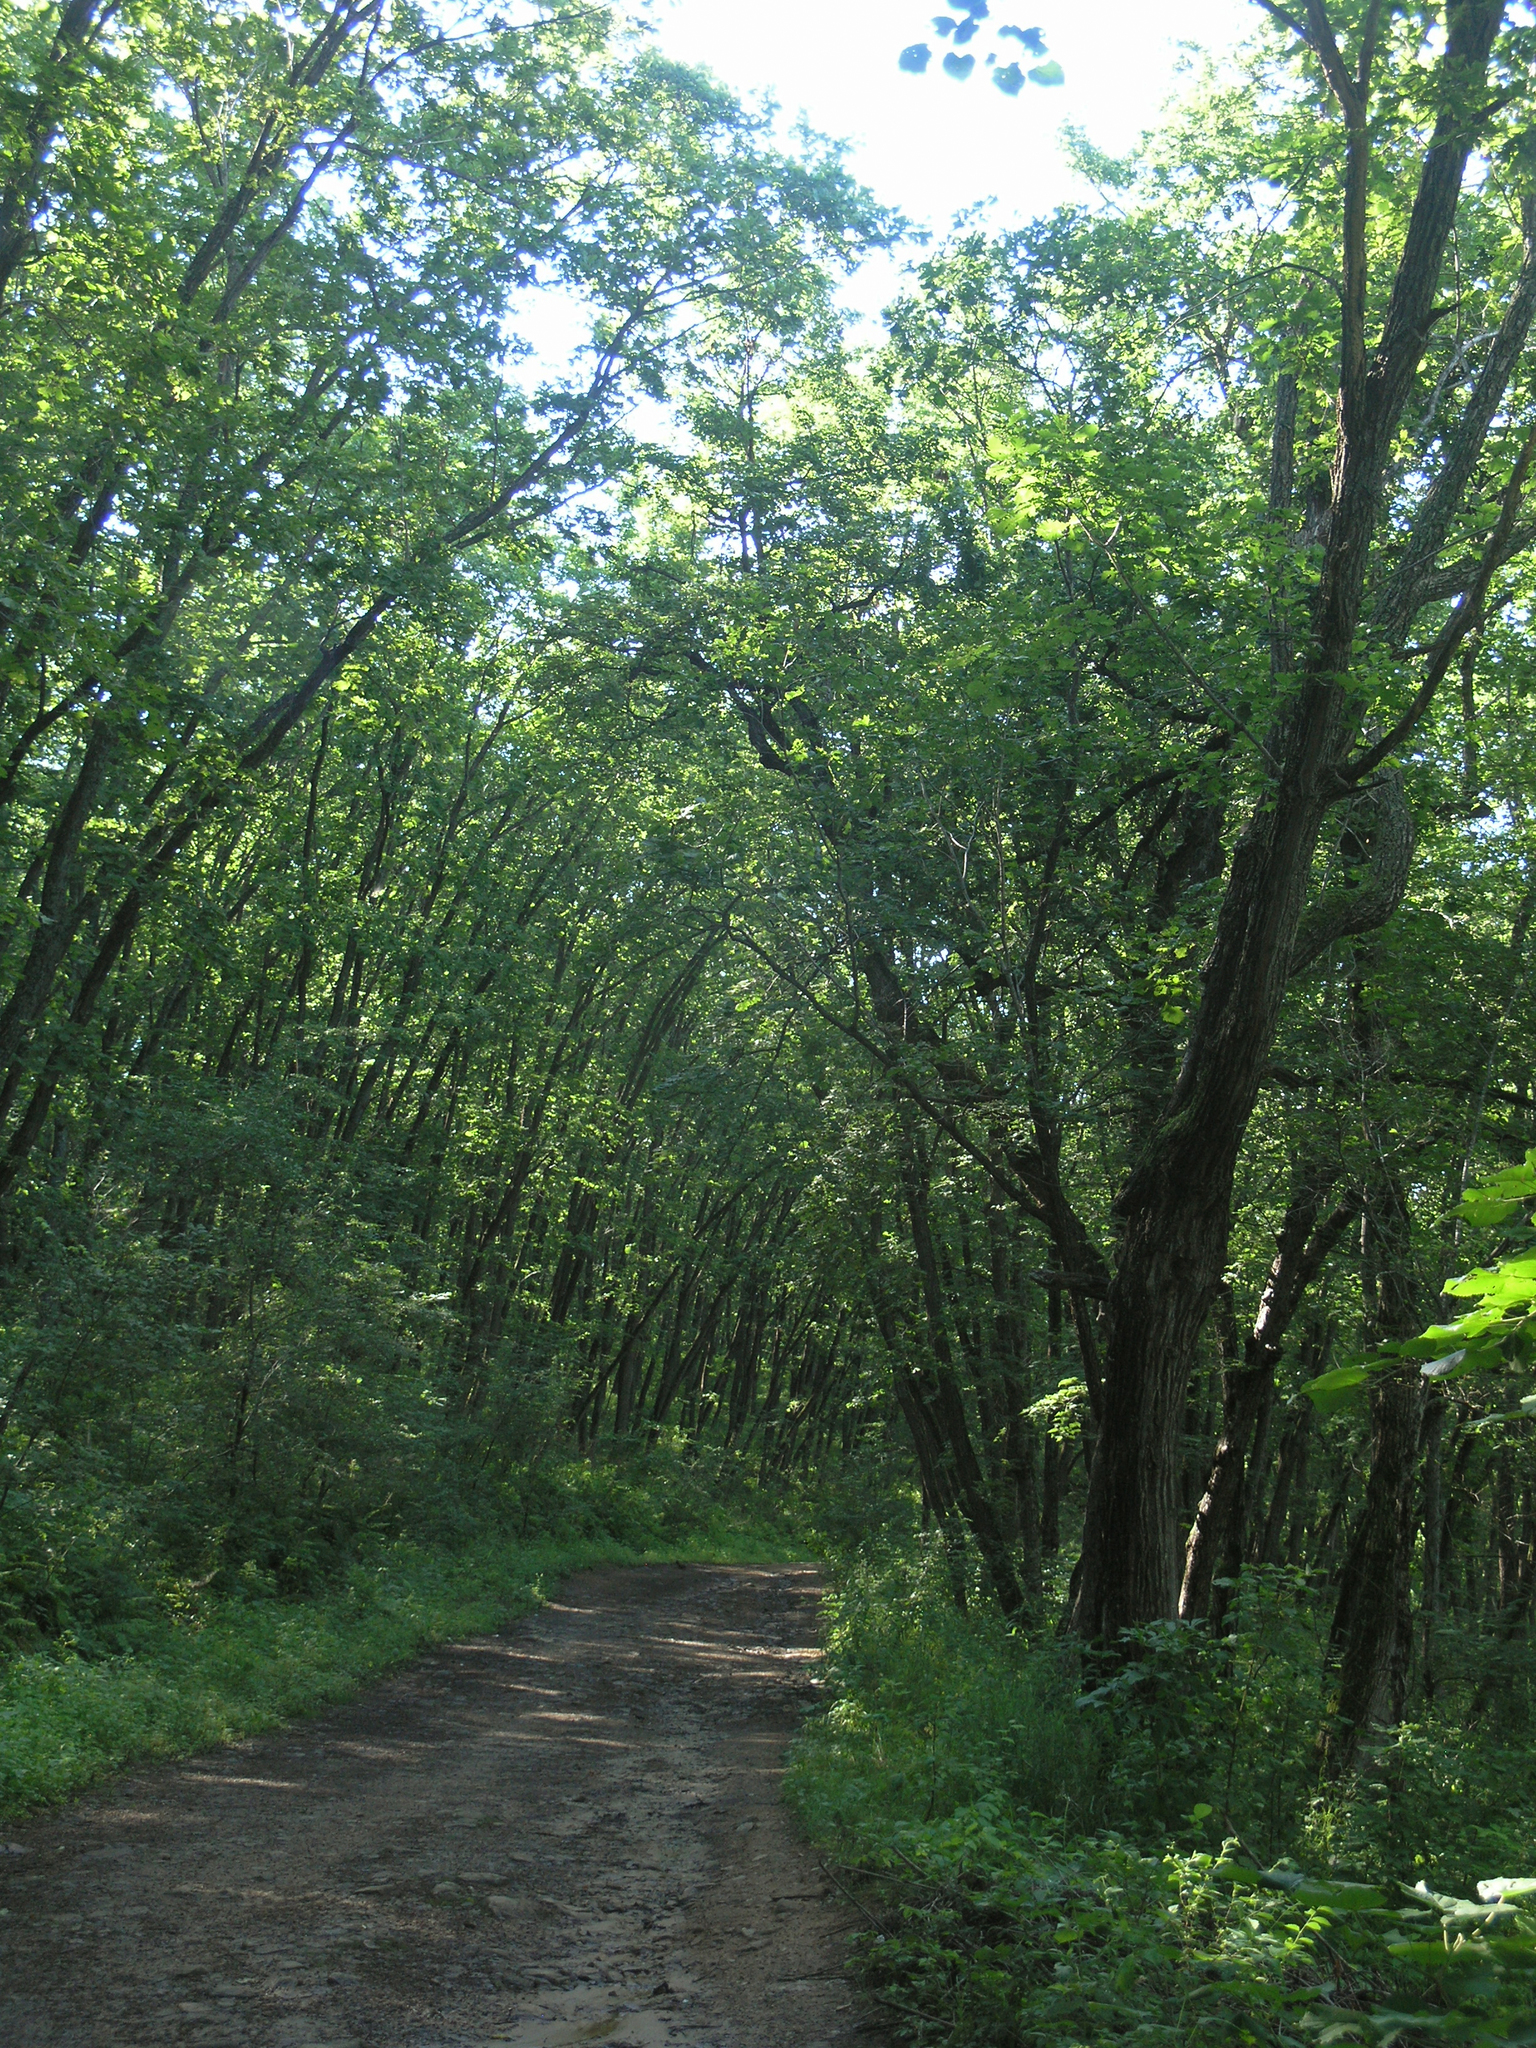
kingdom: Plantae
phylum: Tracheophyta
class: Magnoliopsida
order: Fagales
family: Fagaceae
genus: Quercus
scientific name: Quercus mongolica
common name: Mongolian oak
